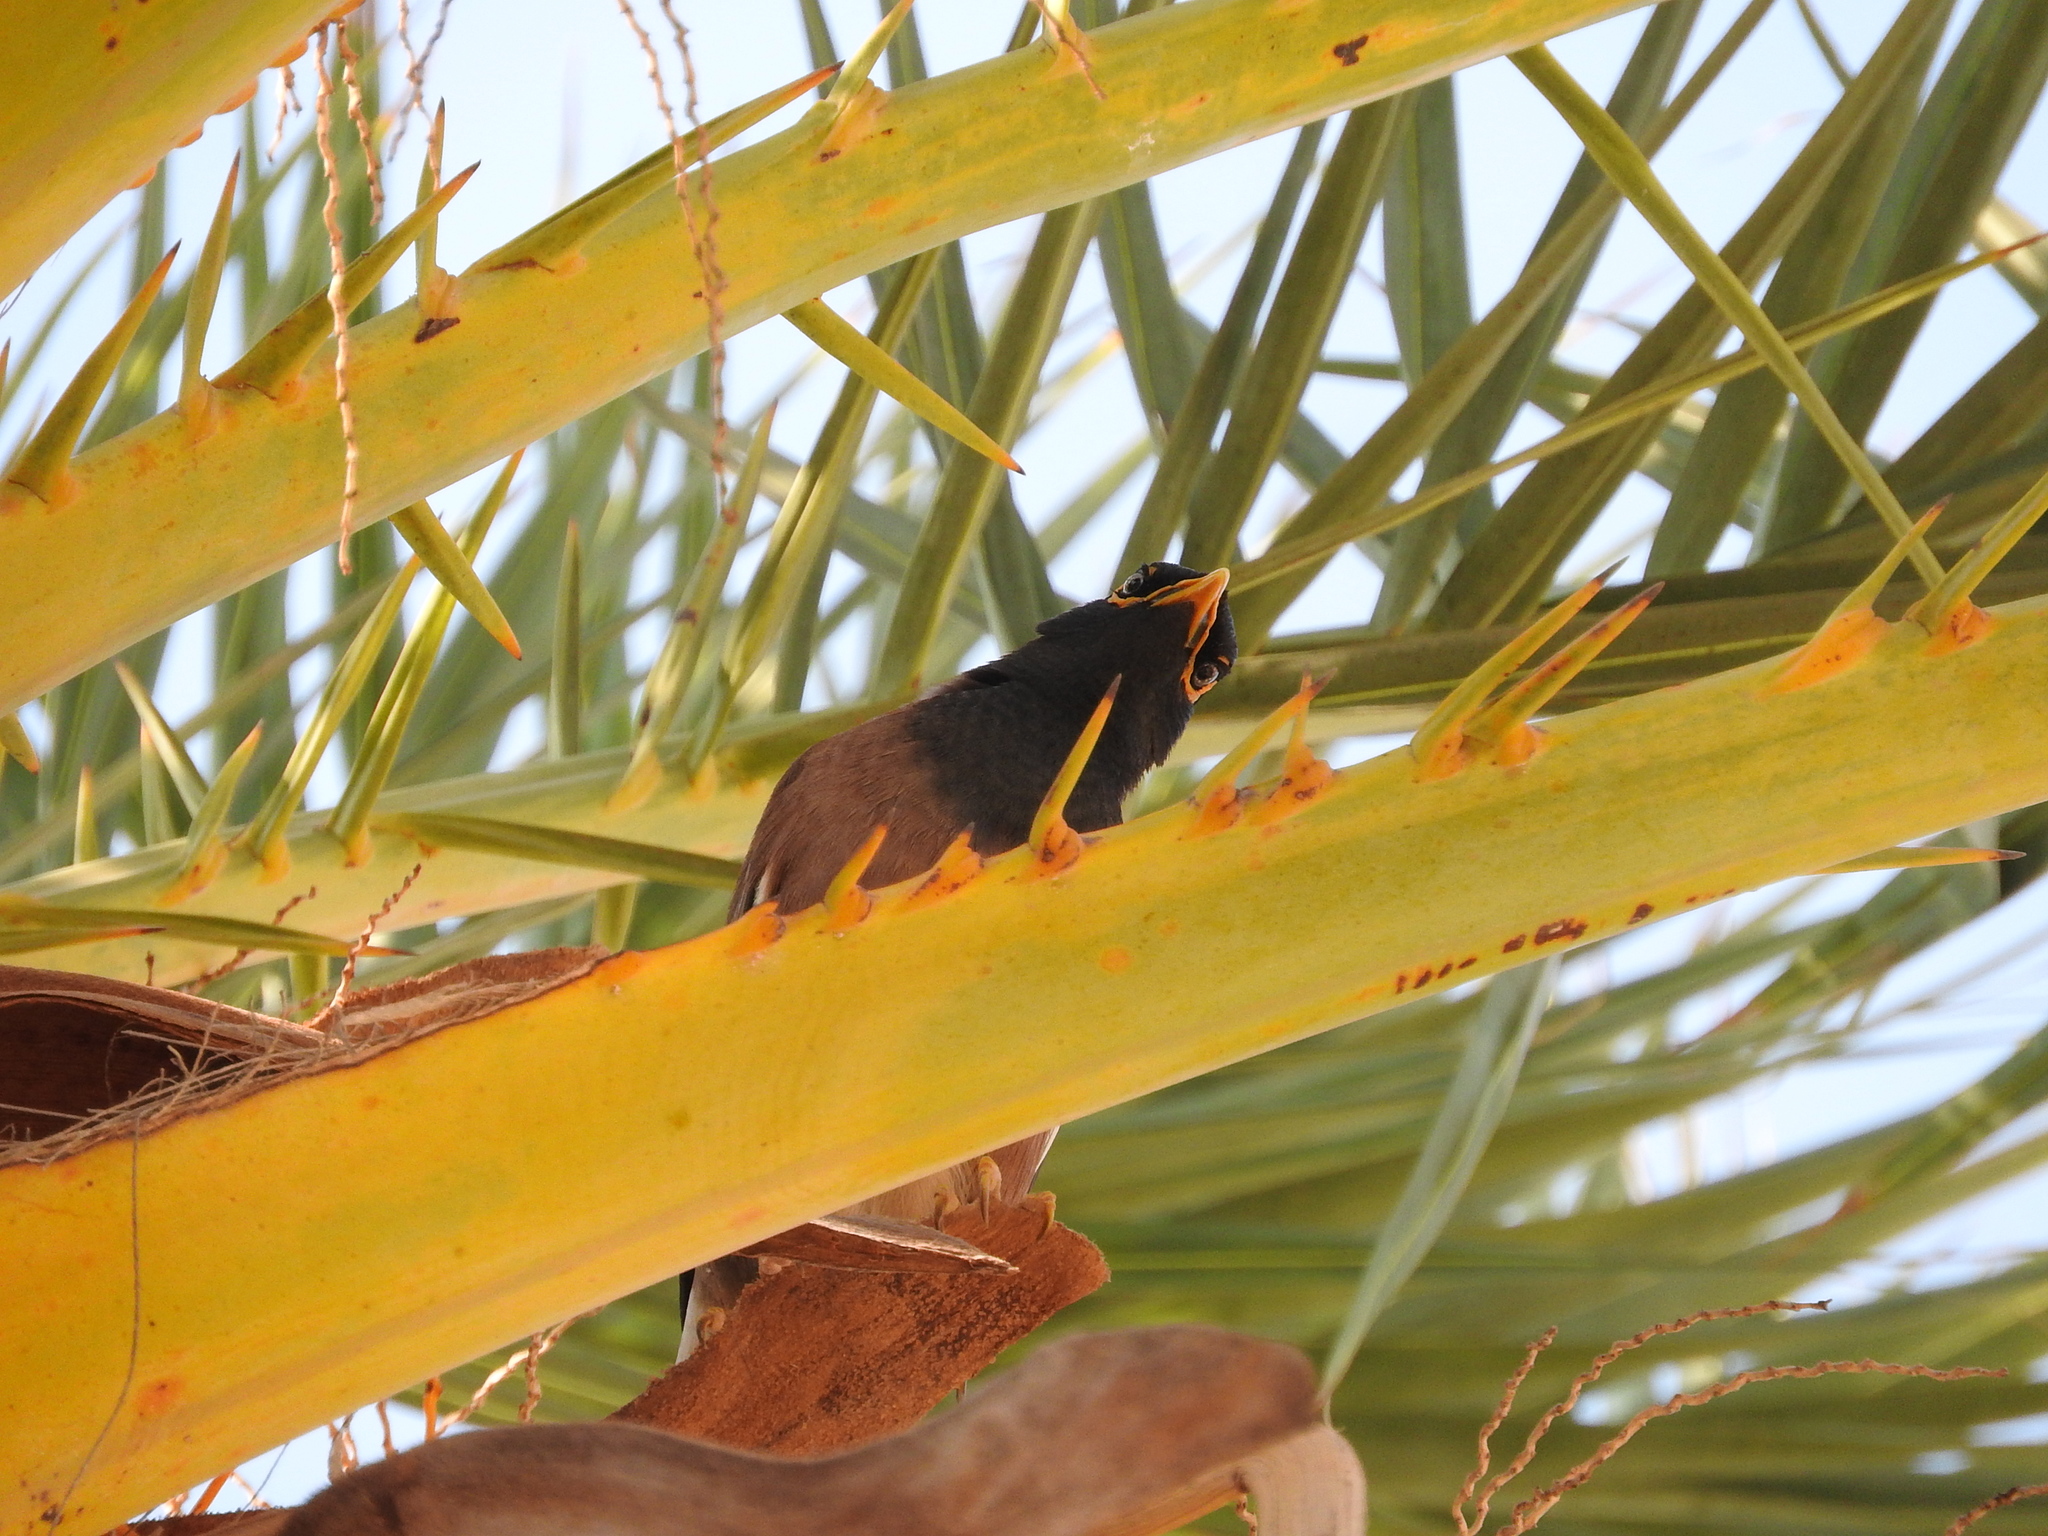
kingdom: Animalia
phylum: Chordata
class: Aves
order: Passeriformes
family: Sturnidae
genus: Acridotheres
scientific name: Acridotheres tristis
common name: Common myna
